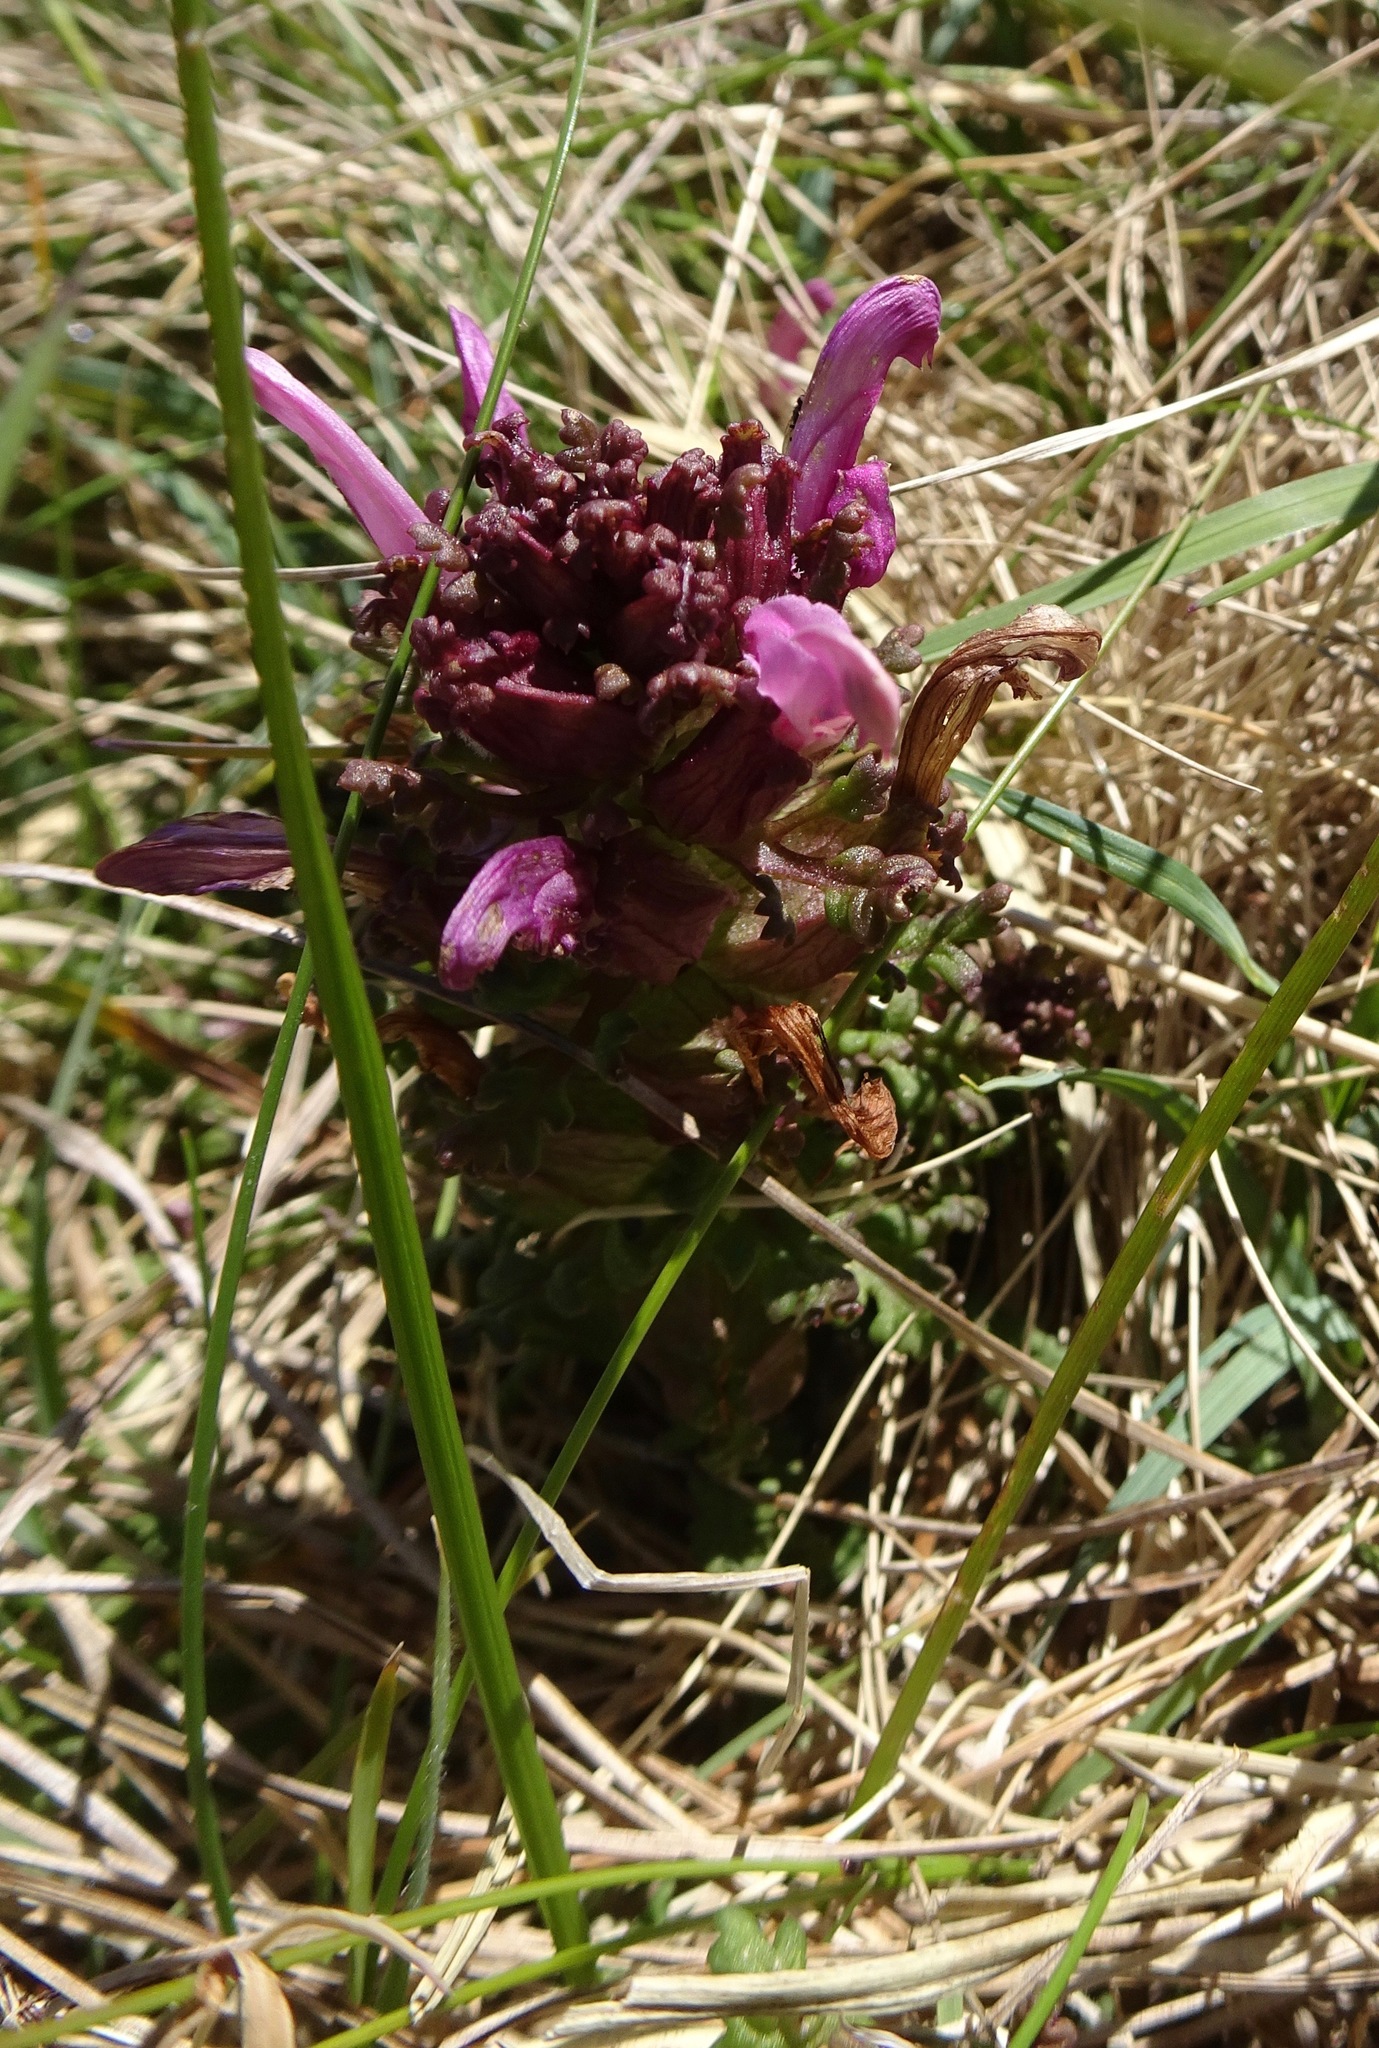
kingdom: Plantae
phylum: Tracheophyta
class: Magnoliopsida
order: Lamiales
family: Orobanchaceae
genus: Pedicularis
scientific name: Pedicularis sylvatica
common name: Lousewort
